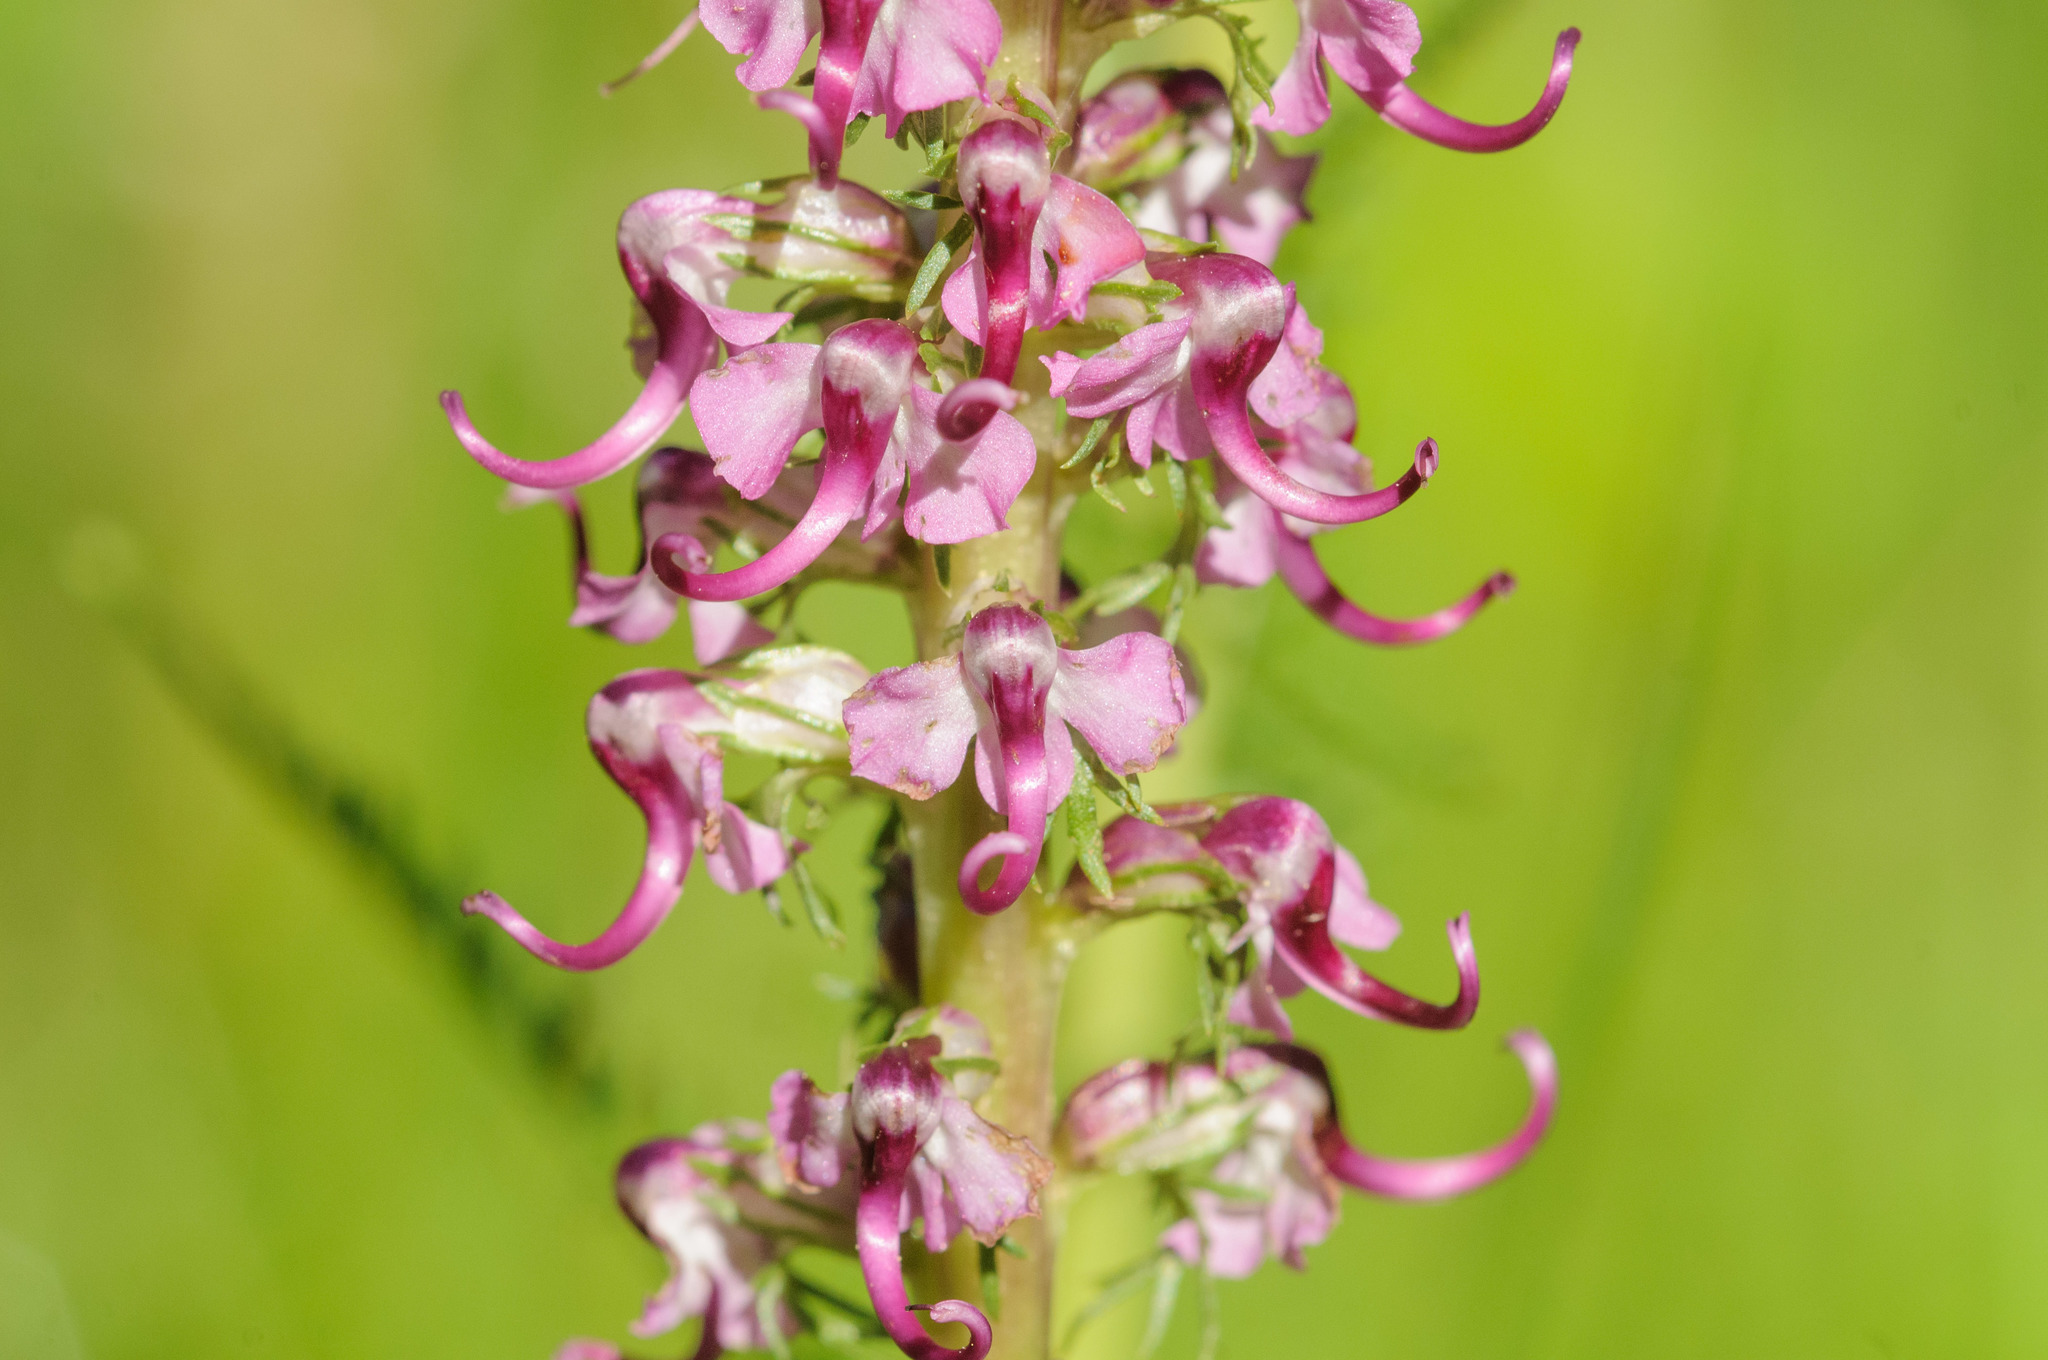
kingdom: Plantae
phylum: Tracheophyta
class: Magnoliopsida
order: Lamiales
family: Orobanchaceae
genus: Pedicularis
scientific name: Pedicularis groenlandica
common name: Elephant's-head
